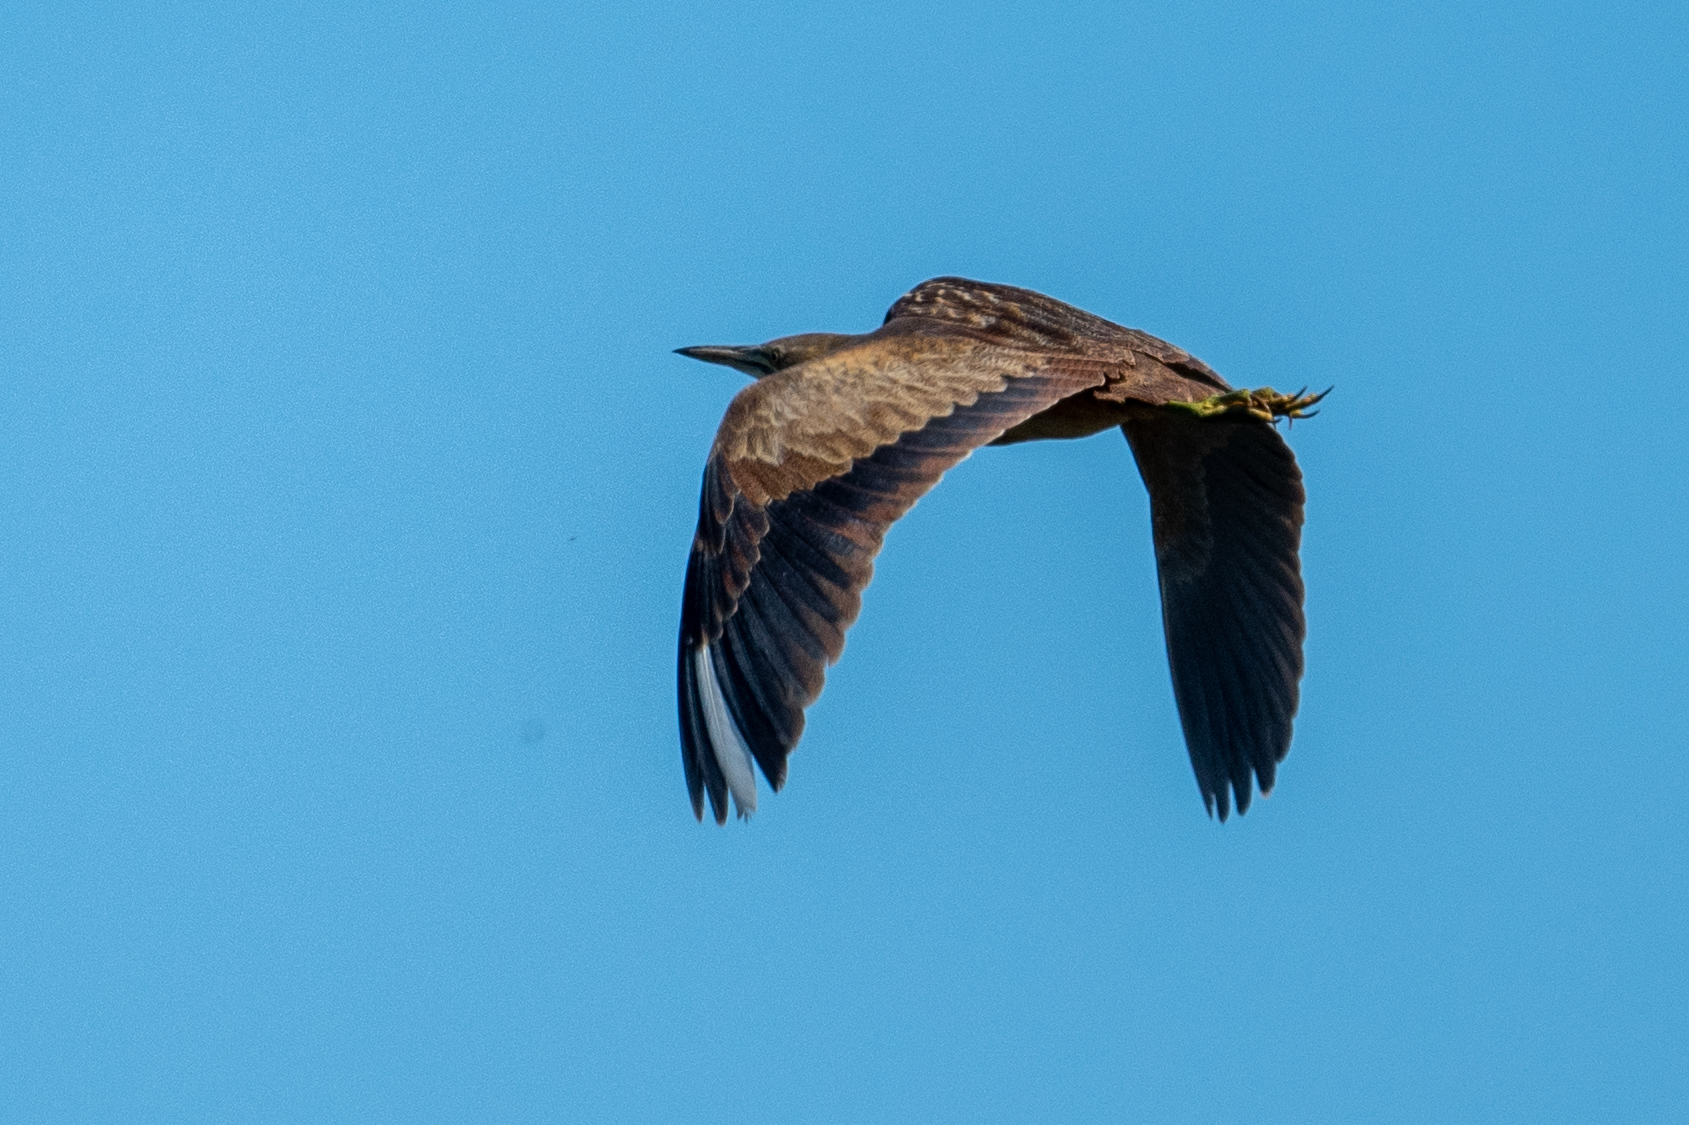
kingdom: Animalia
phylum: Chordata
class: Aves
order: Pelecaniformes
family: Ardeidae
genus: Botaurus
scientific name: Botaurus lentiginosus
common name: American bittern
